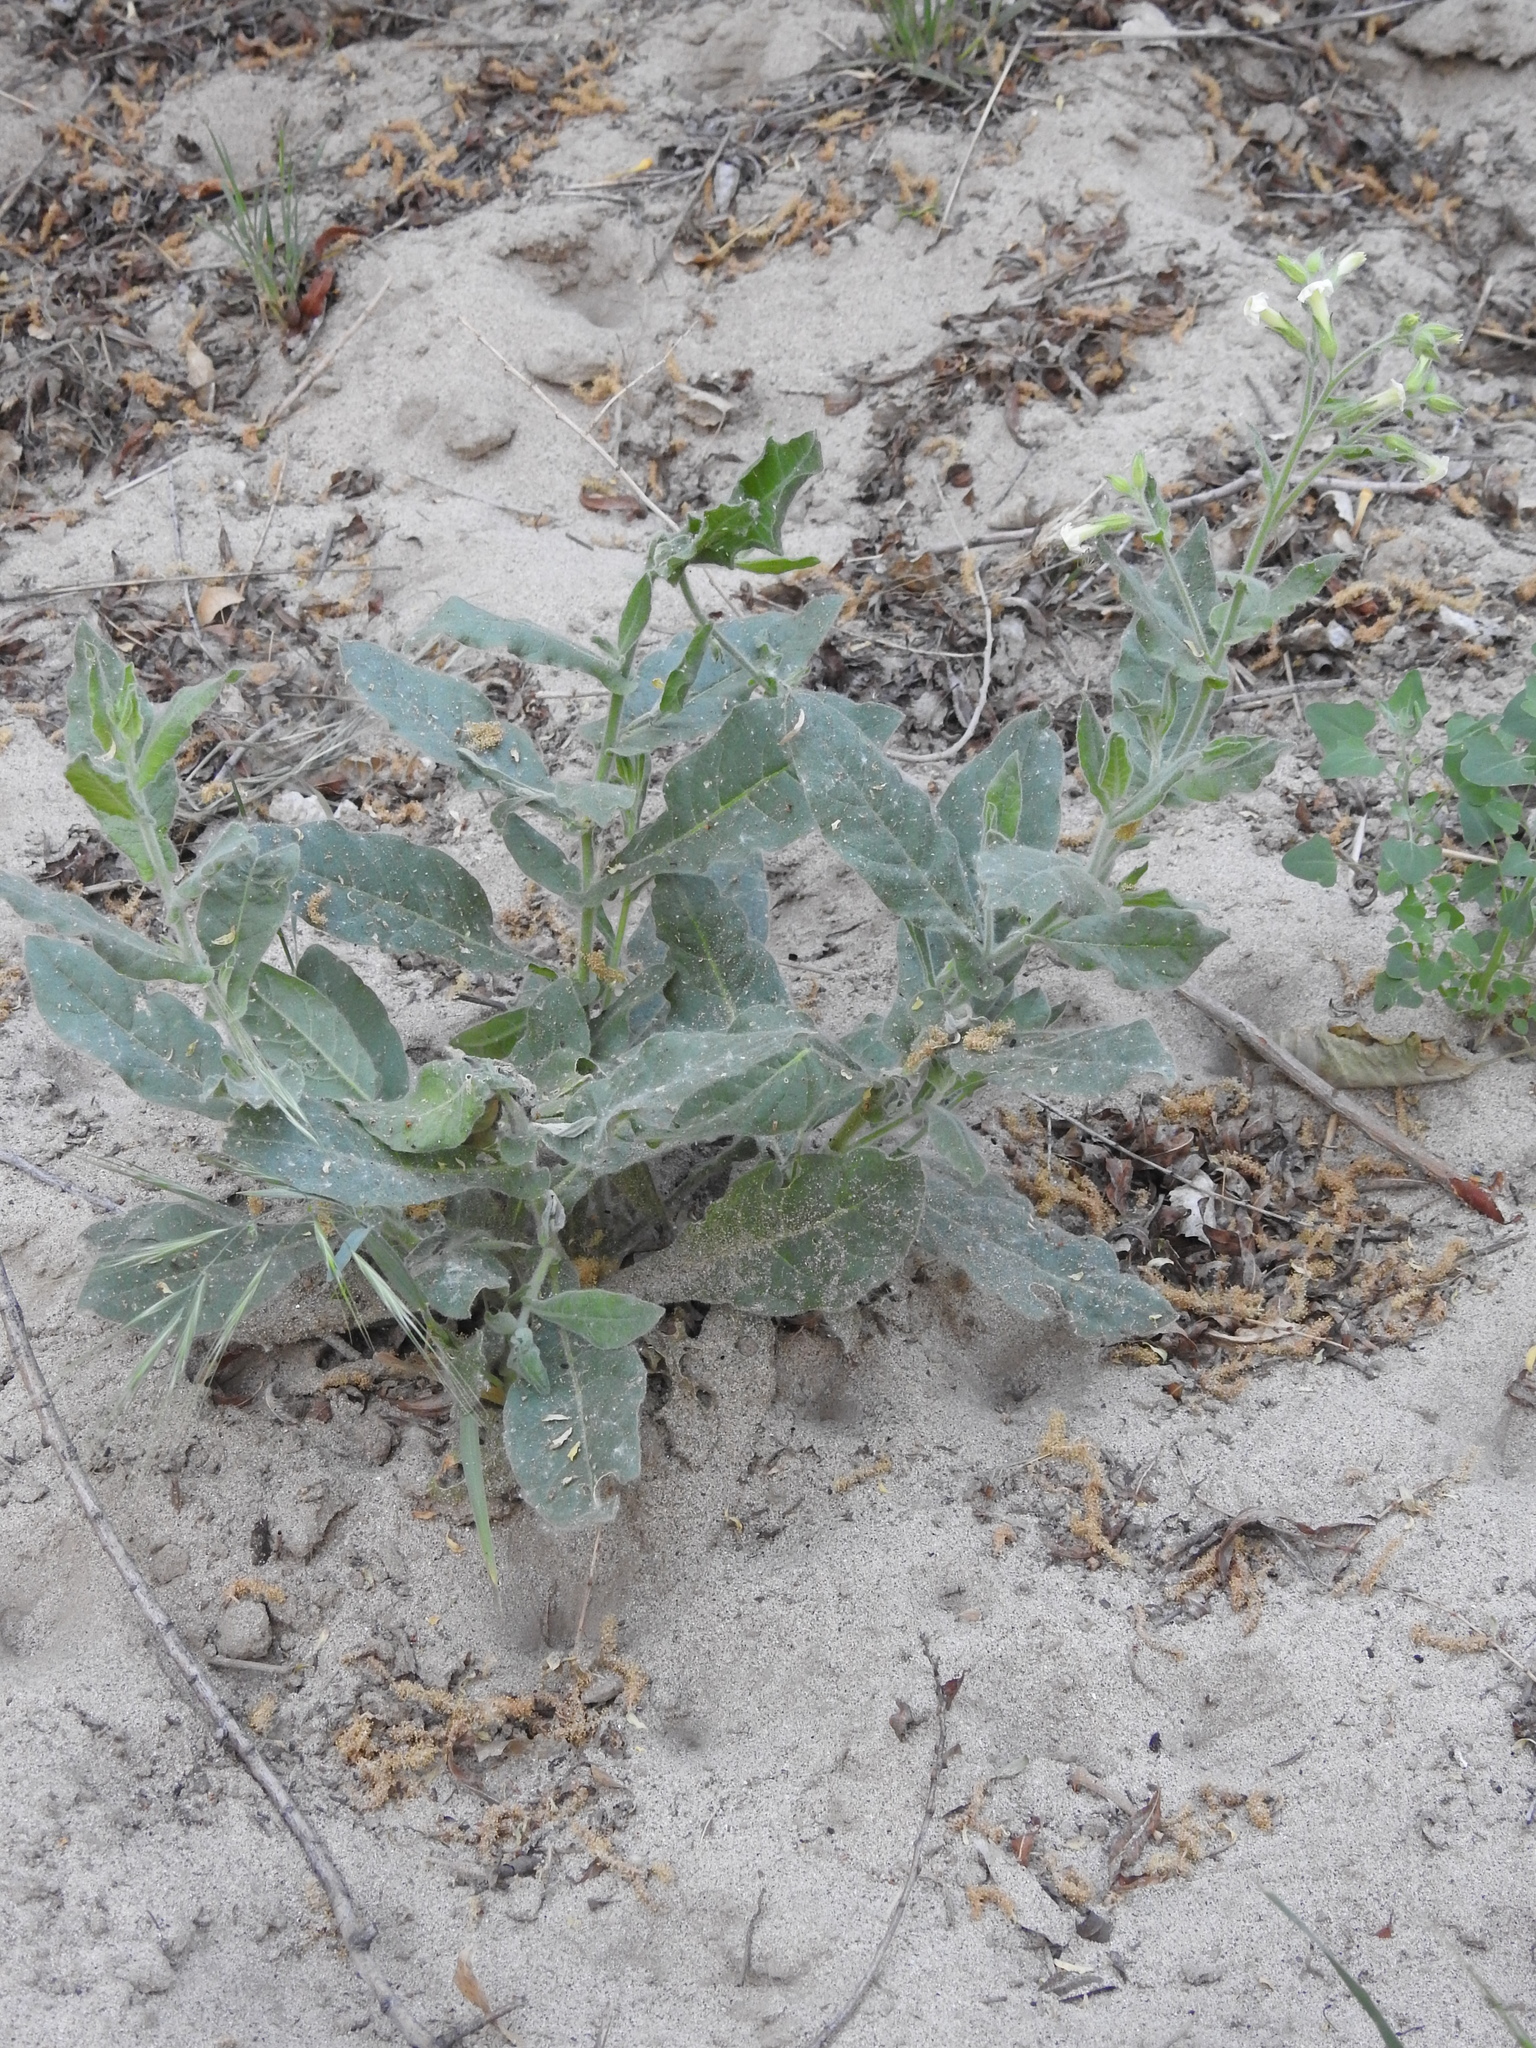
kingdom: Plantae
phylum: Tracheophyta
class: Magnoliopsida
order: Solanales
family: Solanaceae
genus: Nicotiana
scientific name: Nicotiana obtusifolia
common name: Desert tobacco
